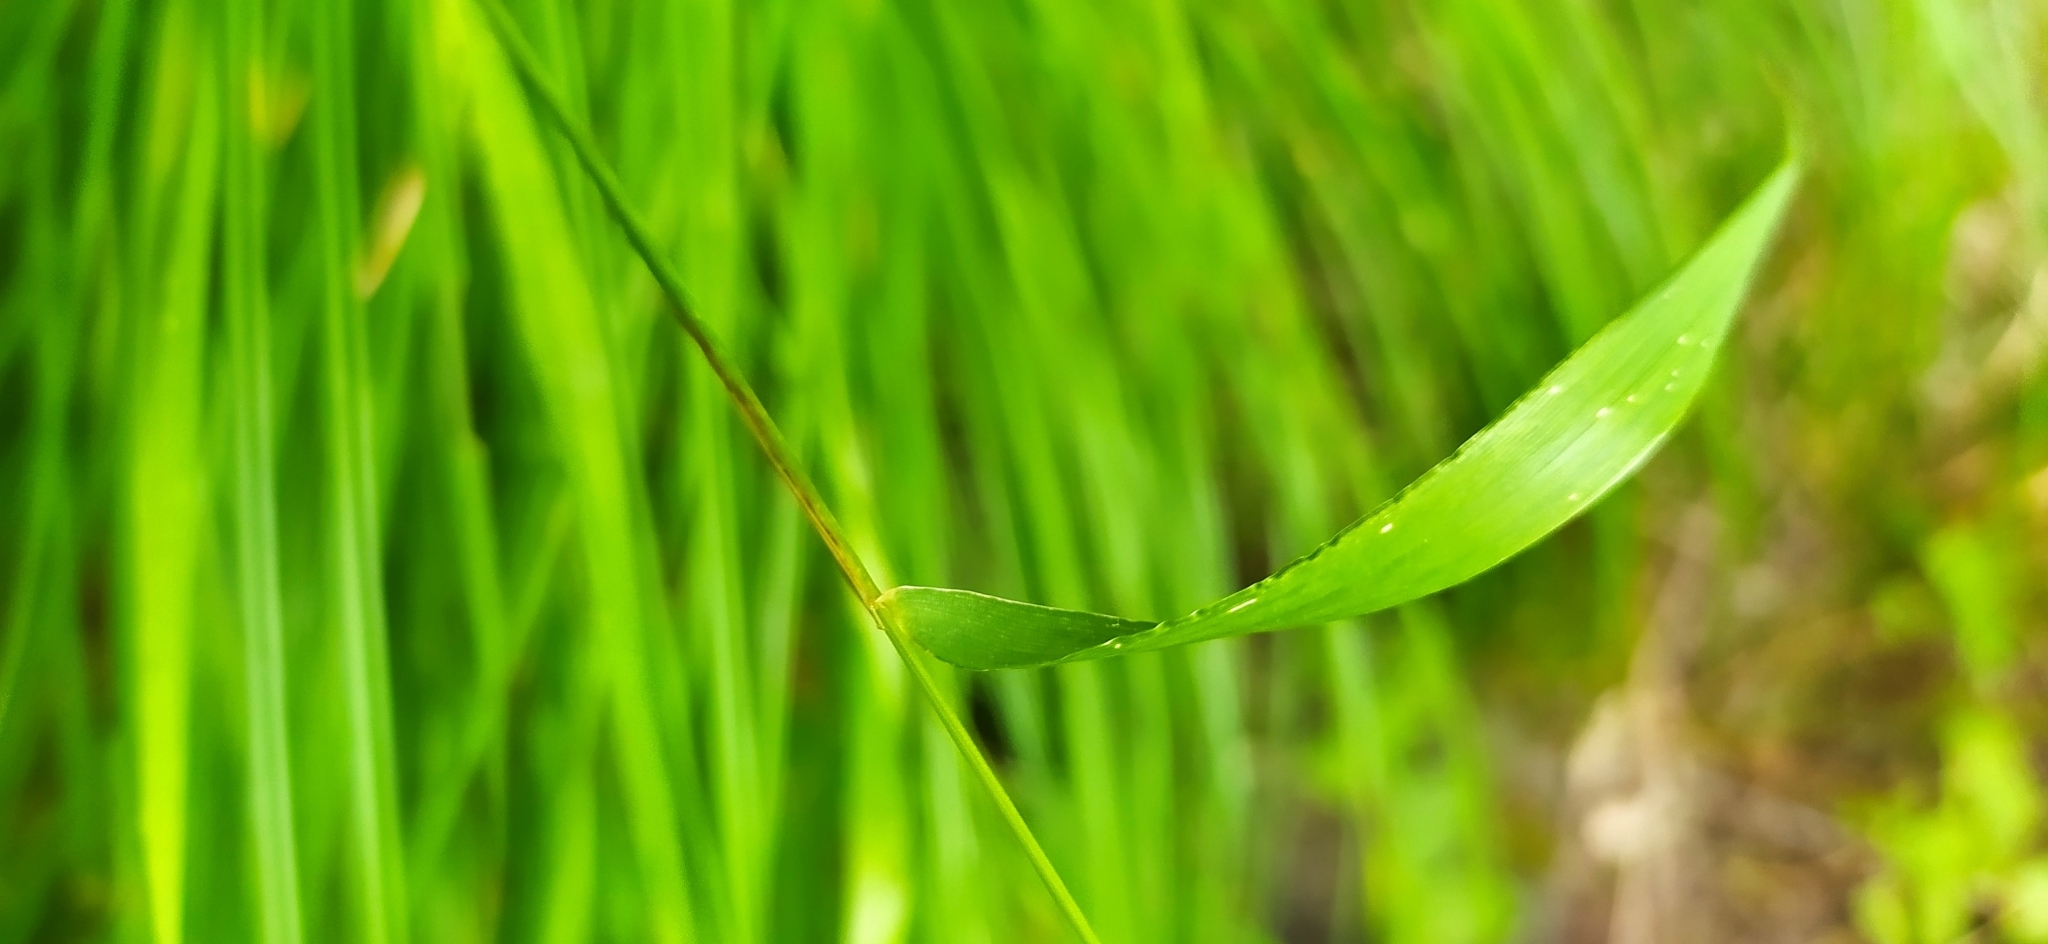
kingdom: Plantae
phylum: Tracheophyta
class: Liliopsida
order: Poales
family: Poaceae
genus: Elymus
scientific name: Elymus fibrosus
